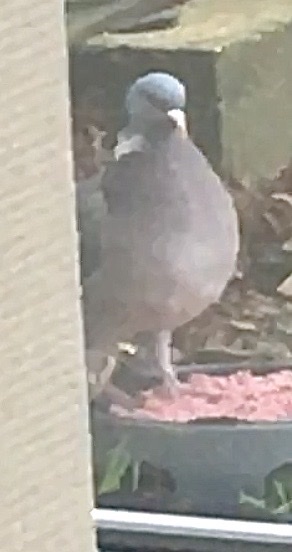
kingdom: Animalia
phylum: Chordata
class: Aves
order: Columbiformes
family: Columbidae
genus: Columba
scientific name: Columba palumbus
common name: Common wood pigeon
